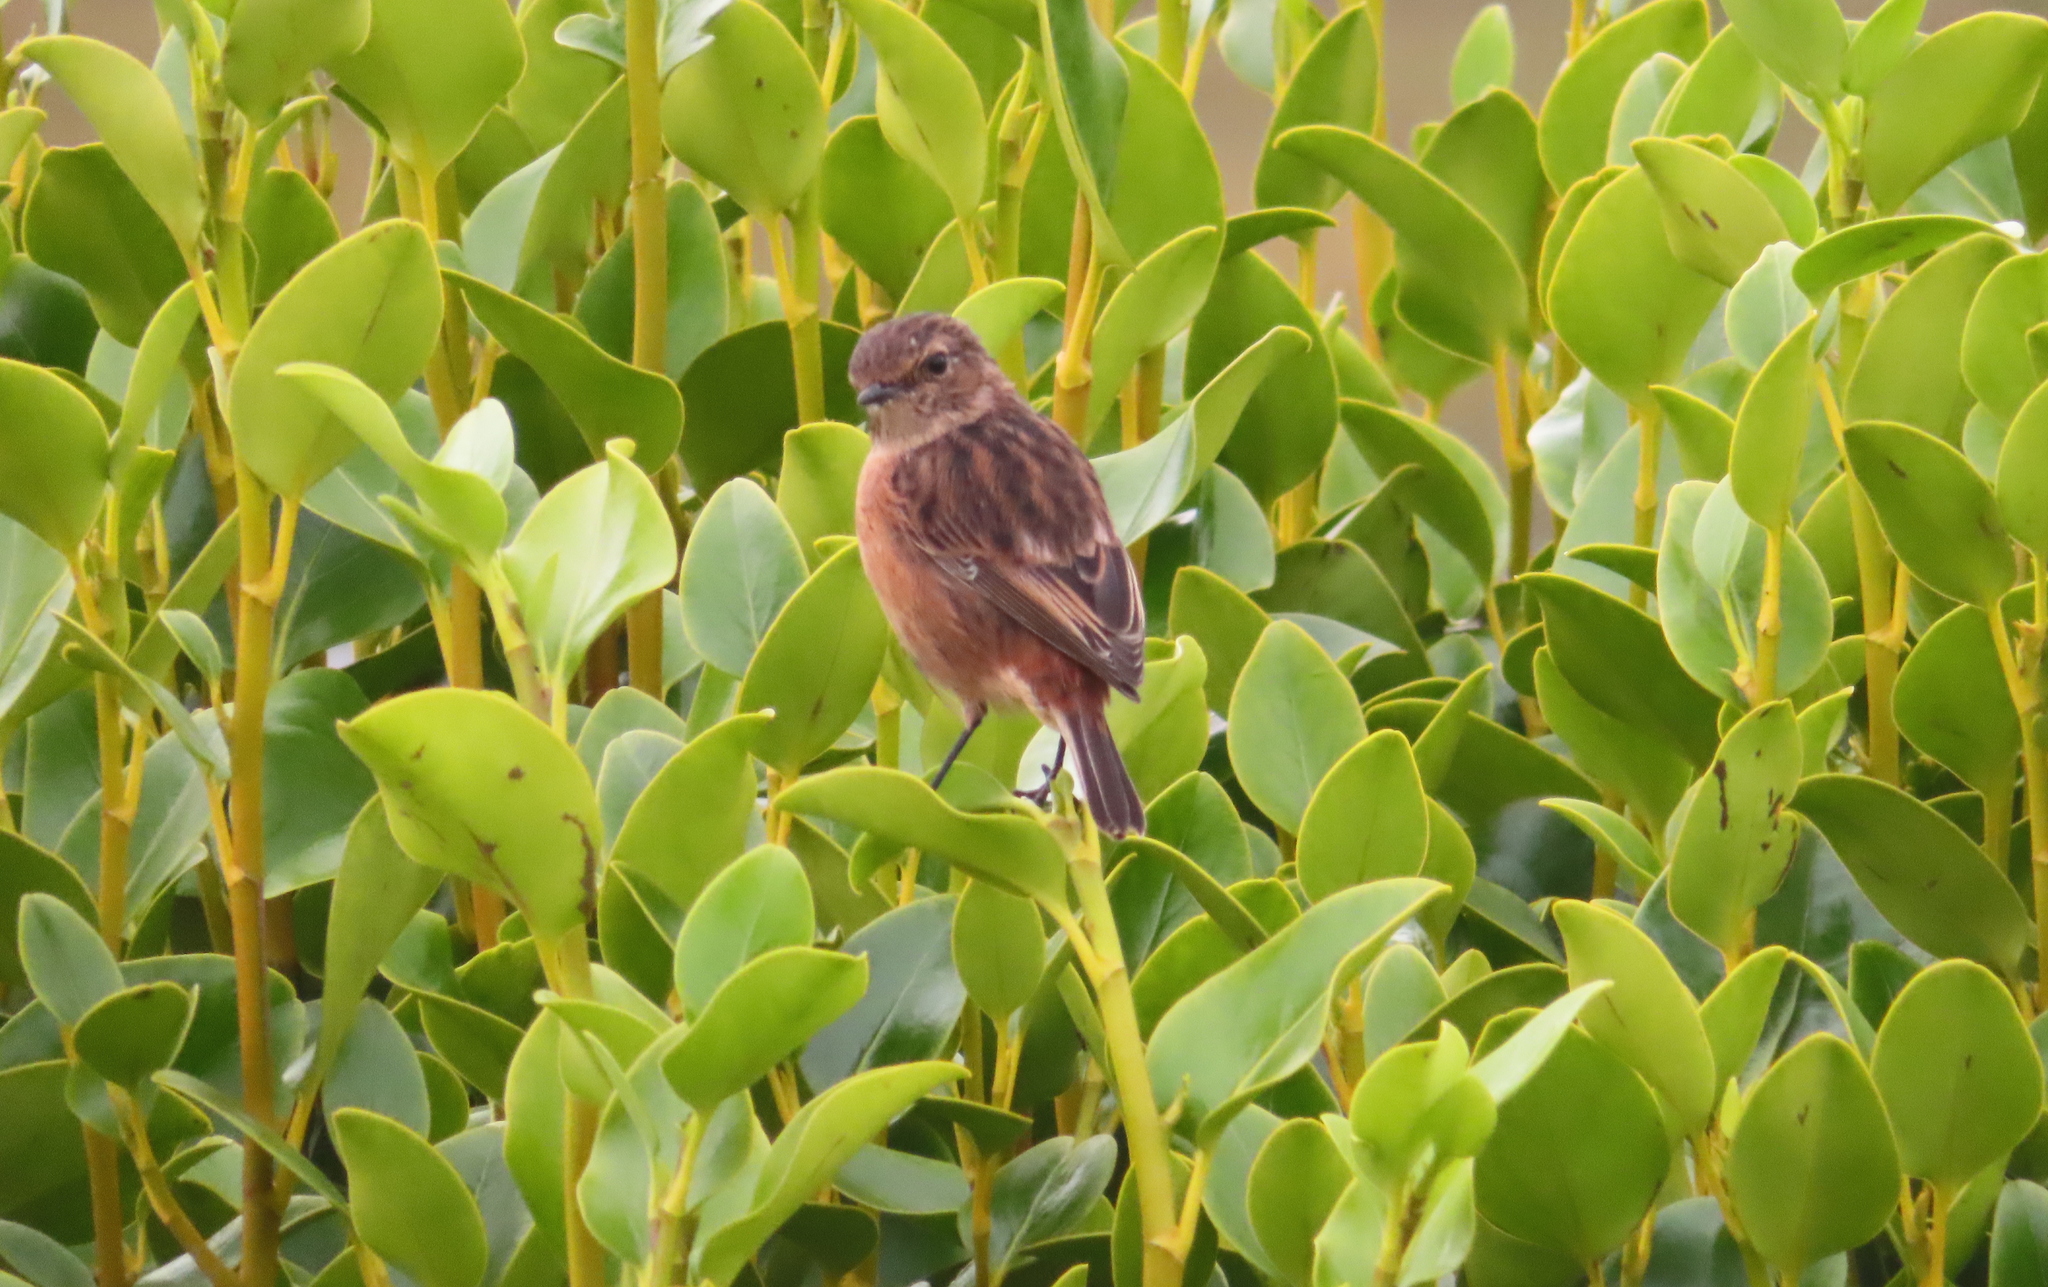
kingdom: Animalia
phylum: Chordata
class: Aves
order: Passeriformes
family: Muscicapidae
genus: Saxicola
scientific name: Saxicola rubicola
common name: European stonechat
